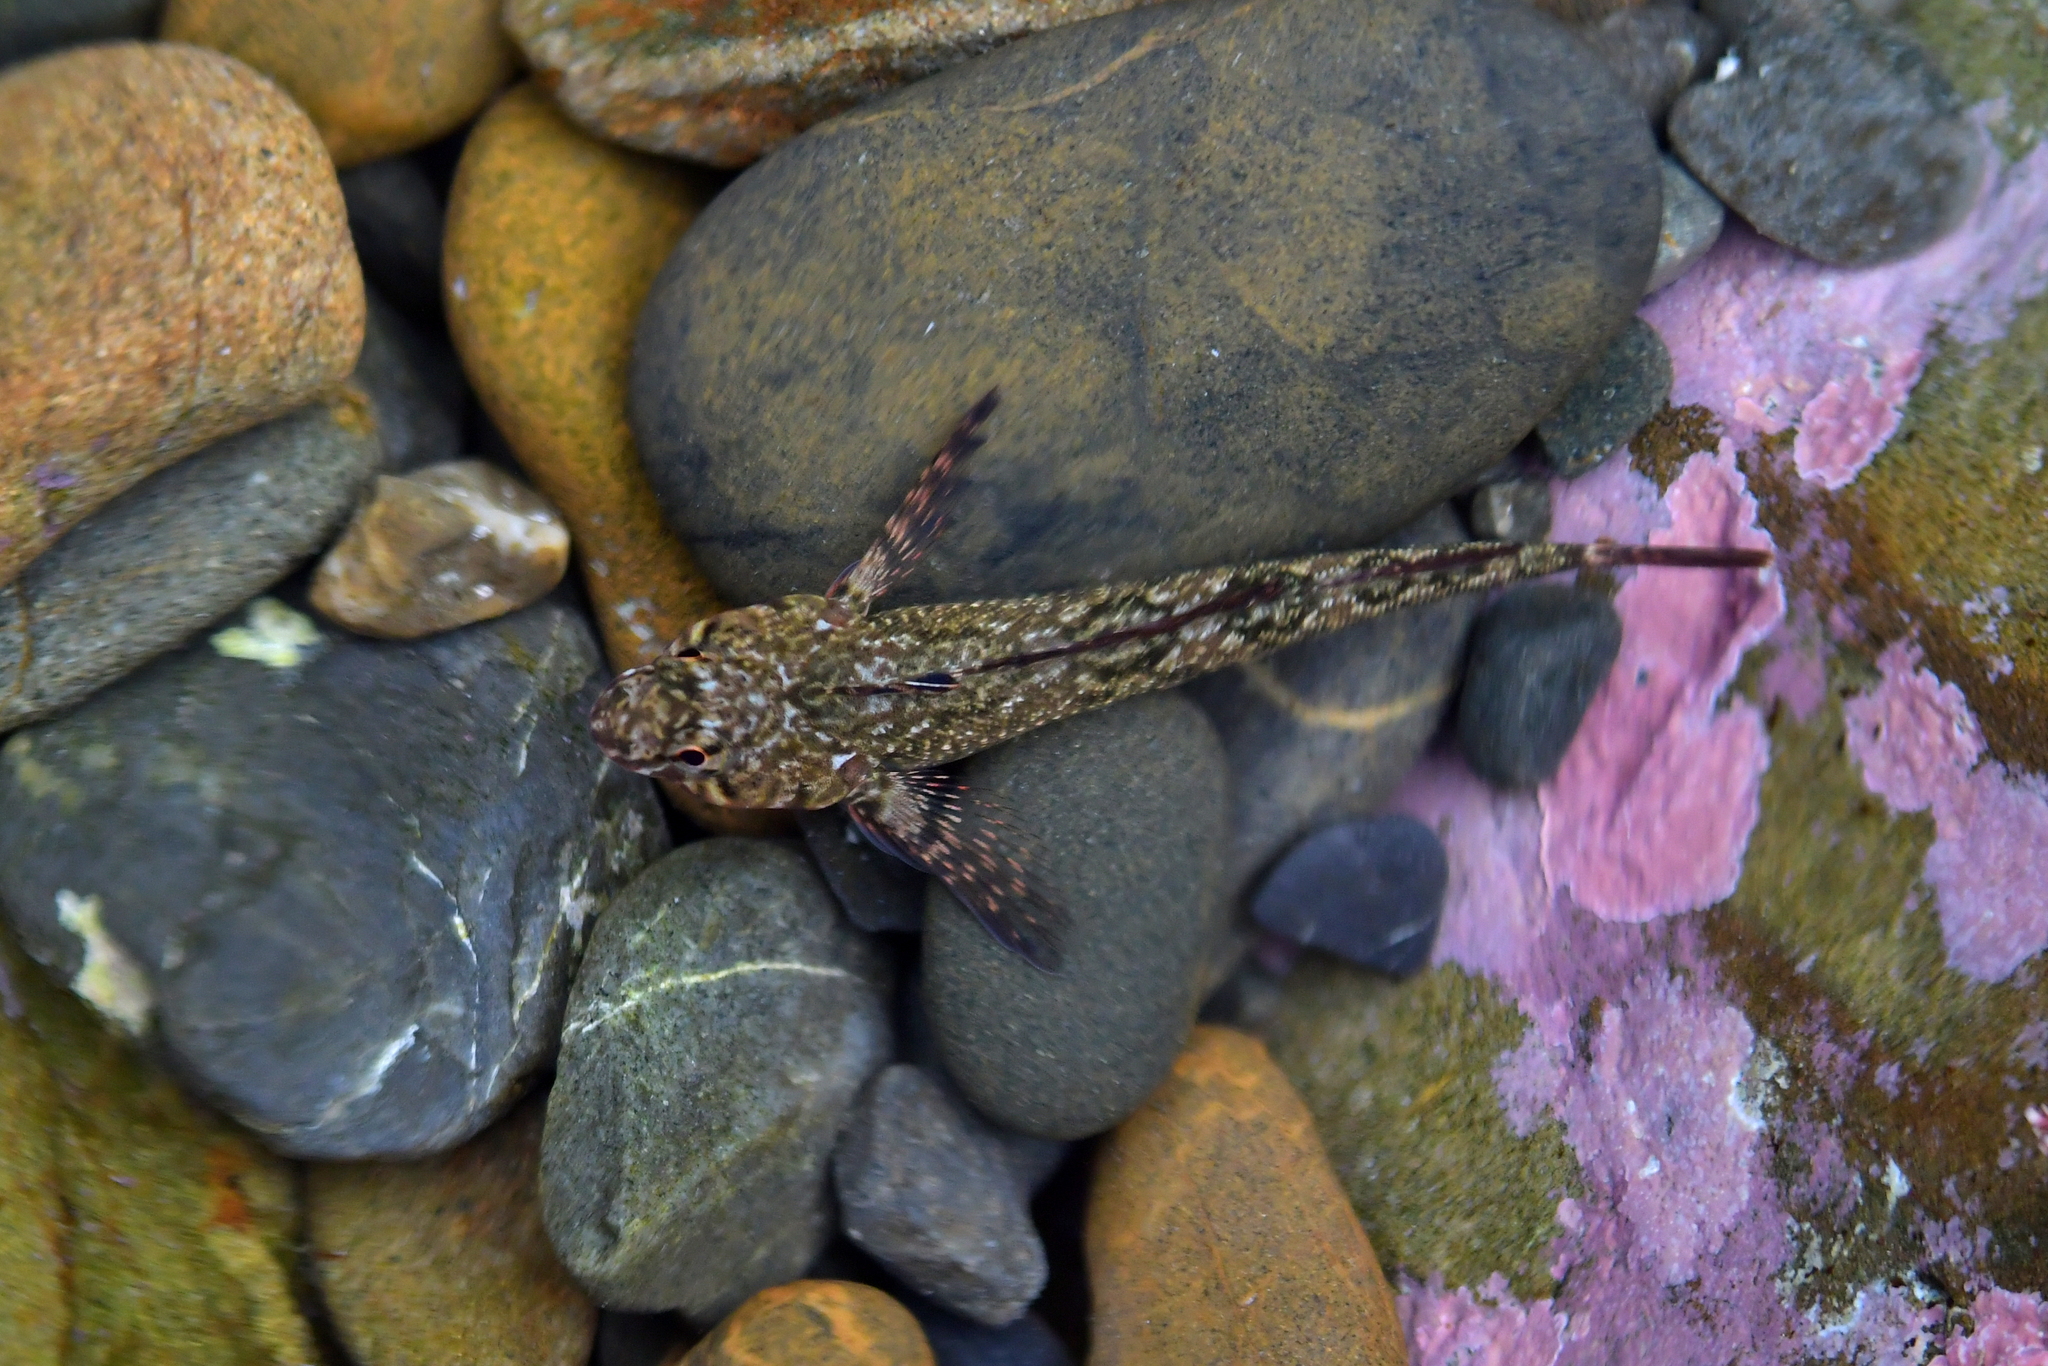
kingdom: Animalia
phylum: Chordata
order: Perciformes
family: Tripterygiidae
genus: Bellapiscis
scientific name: Bellapiscis medius
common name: Twister
